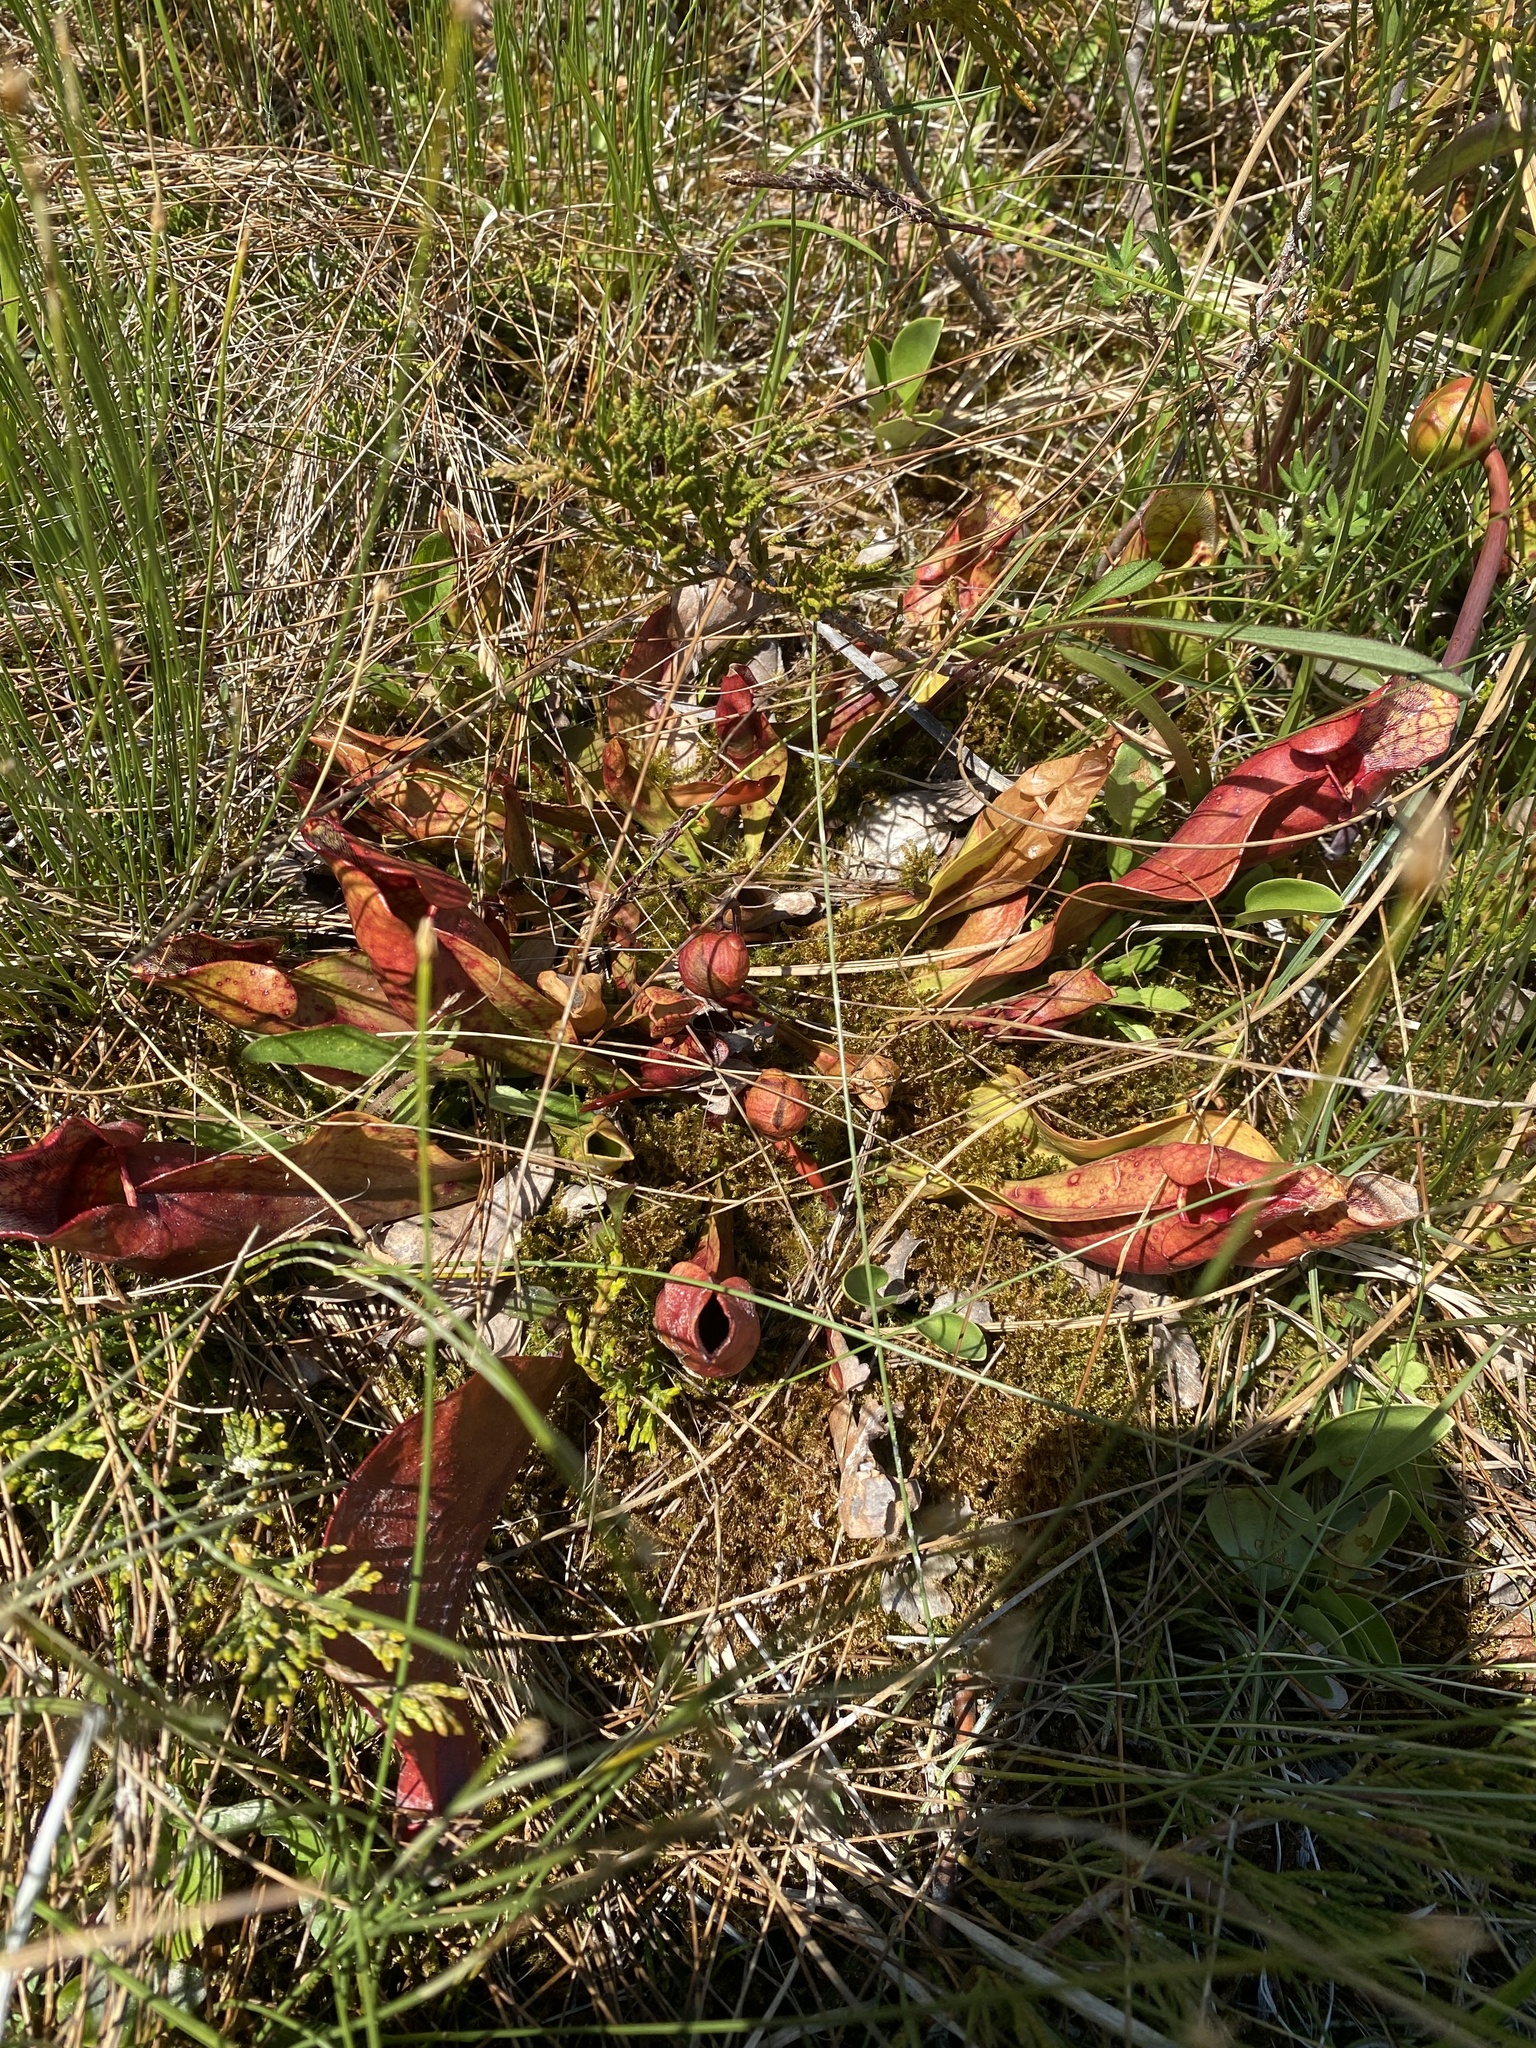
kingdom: Plantae
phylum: Tracheophyta
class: Magnoliopsida
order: Ericales
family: Sarraceniaceae
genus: Sarracenia
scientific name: Sarracenia purpurea
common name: Pitcherplant
